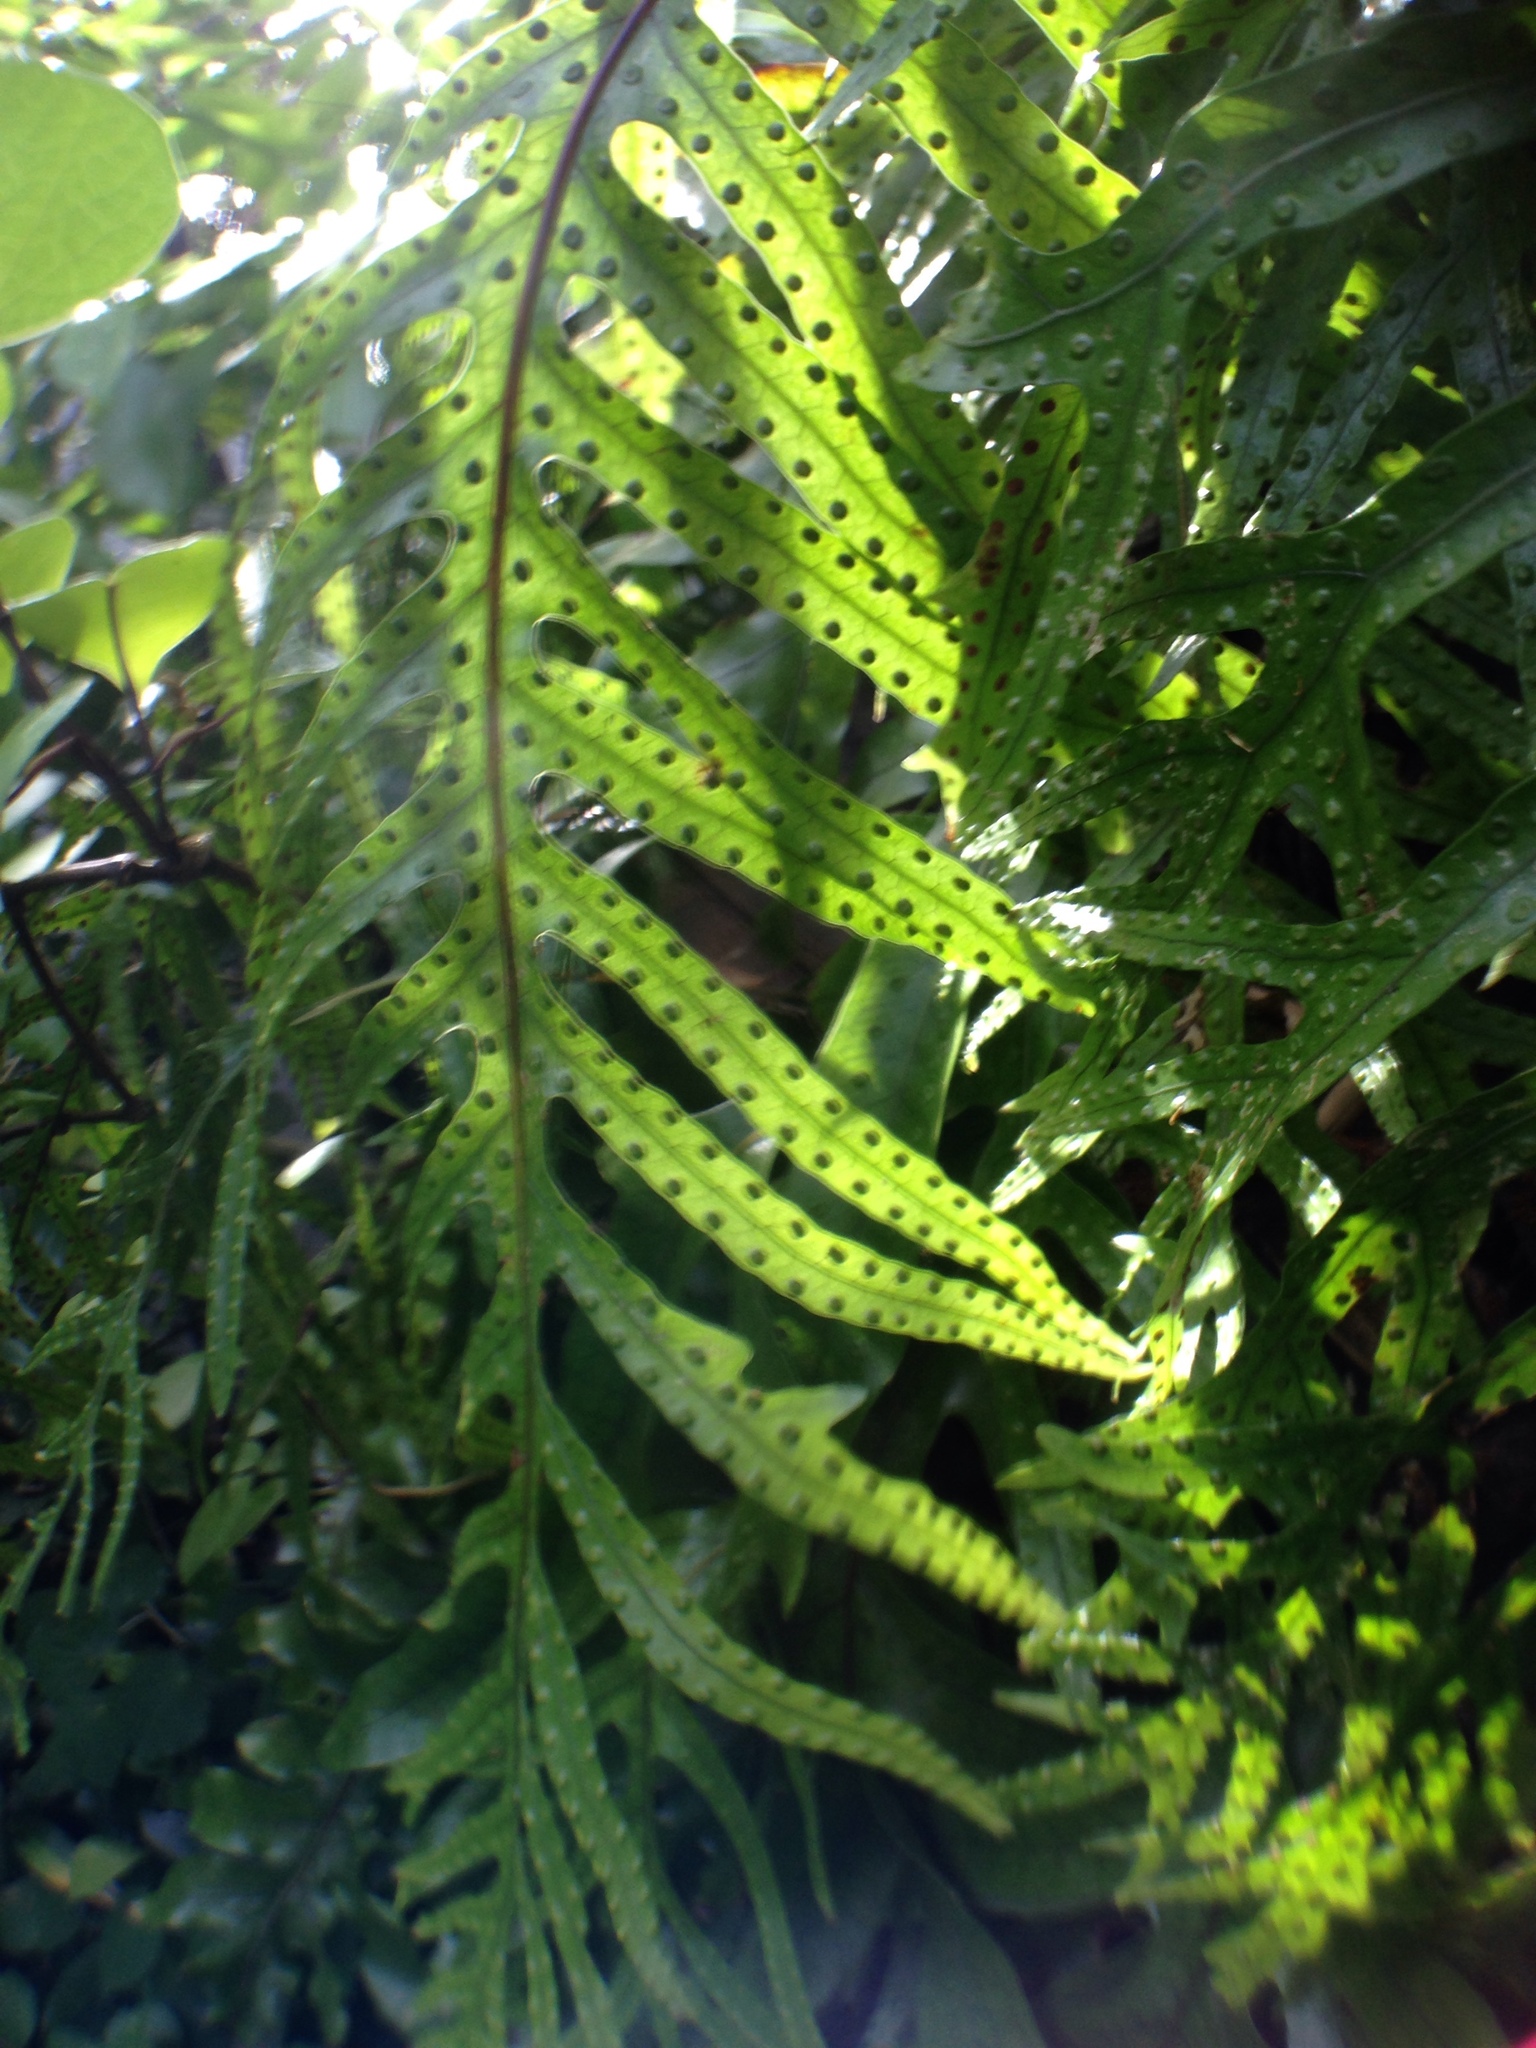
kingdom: Plantae
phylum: Tracheophyta
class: Polypodiopsida
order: Polypodiales
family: Polypodiaceae
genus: Lecanopteris
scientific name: Lecanopteris pustulata
